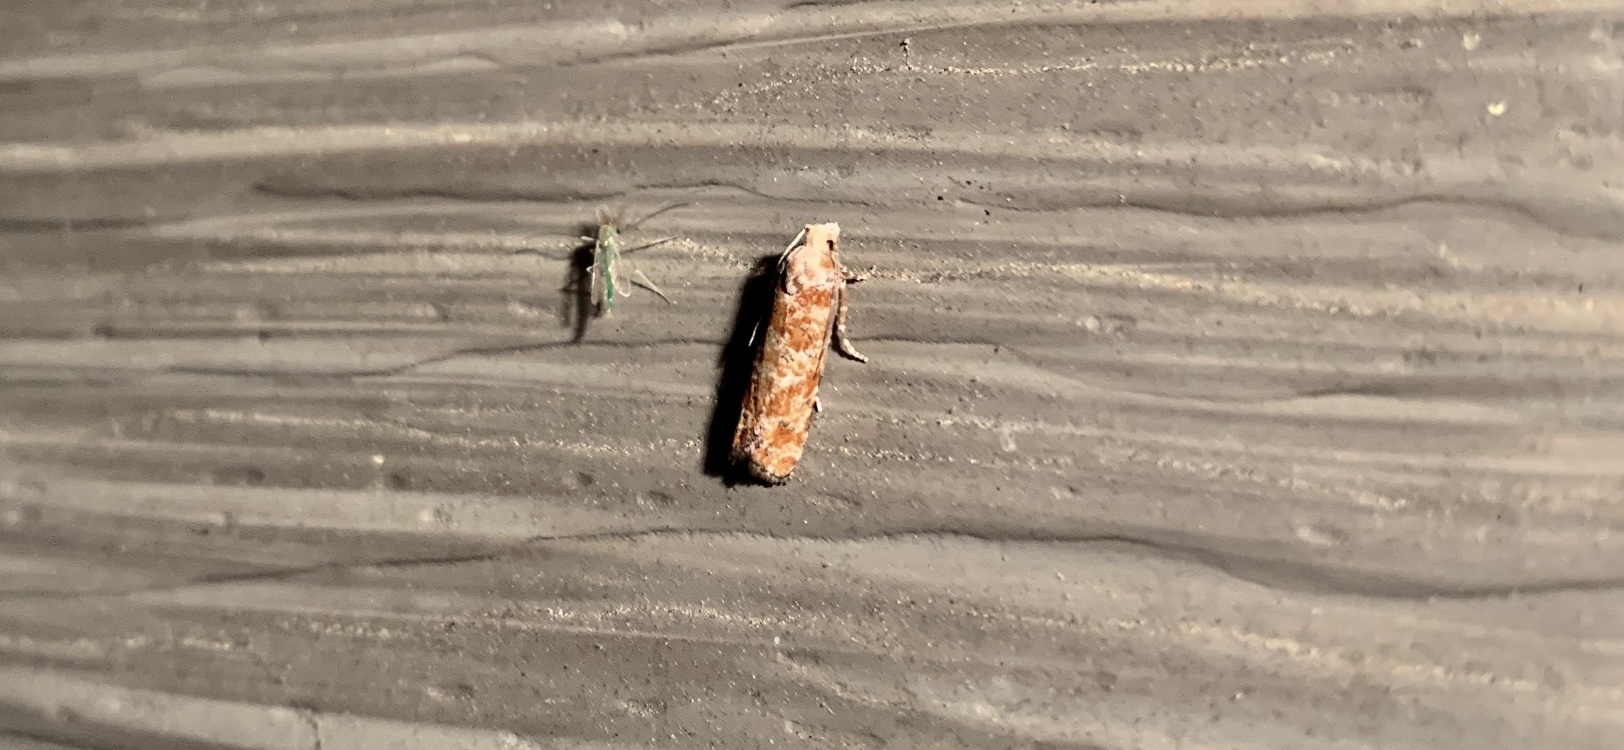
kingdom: Animalia
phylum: Arthropoda
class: Insecta
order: Lepidoptera
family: Tortricidae
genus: Retinia
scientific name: Retinia albicapitana
